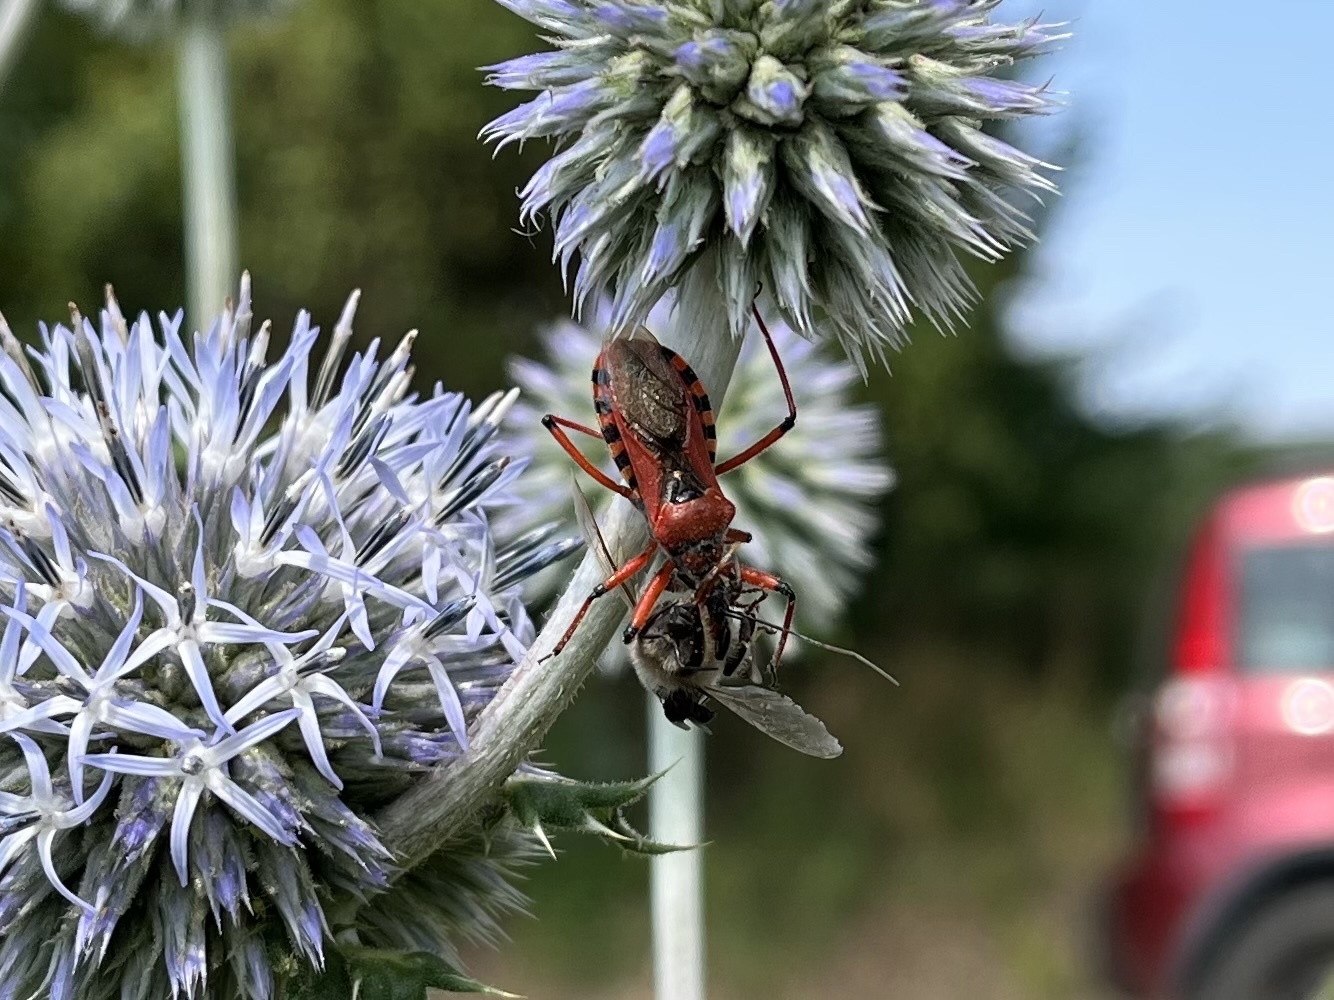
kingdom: Animalia
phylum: Arthropoda
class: Insecta
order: Hemiptera
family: Reduviidae
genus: Rhynocoris
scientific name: Rhynocoris iracundus
